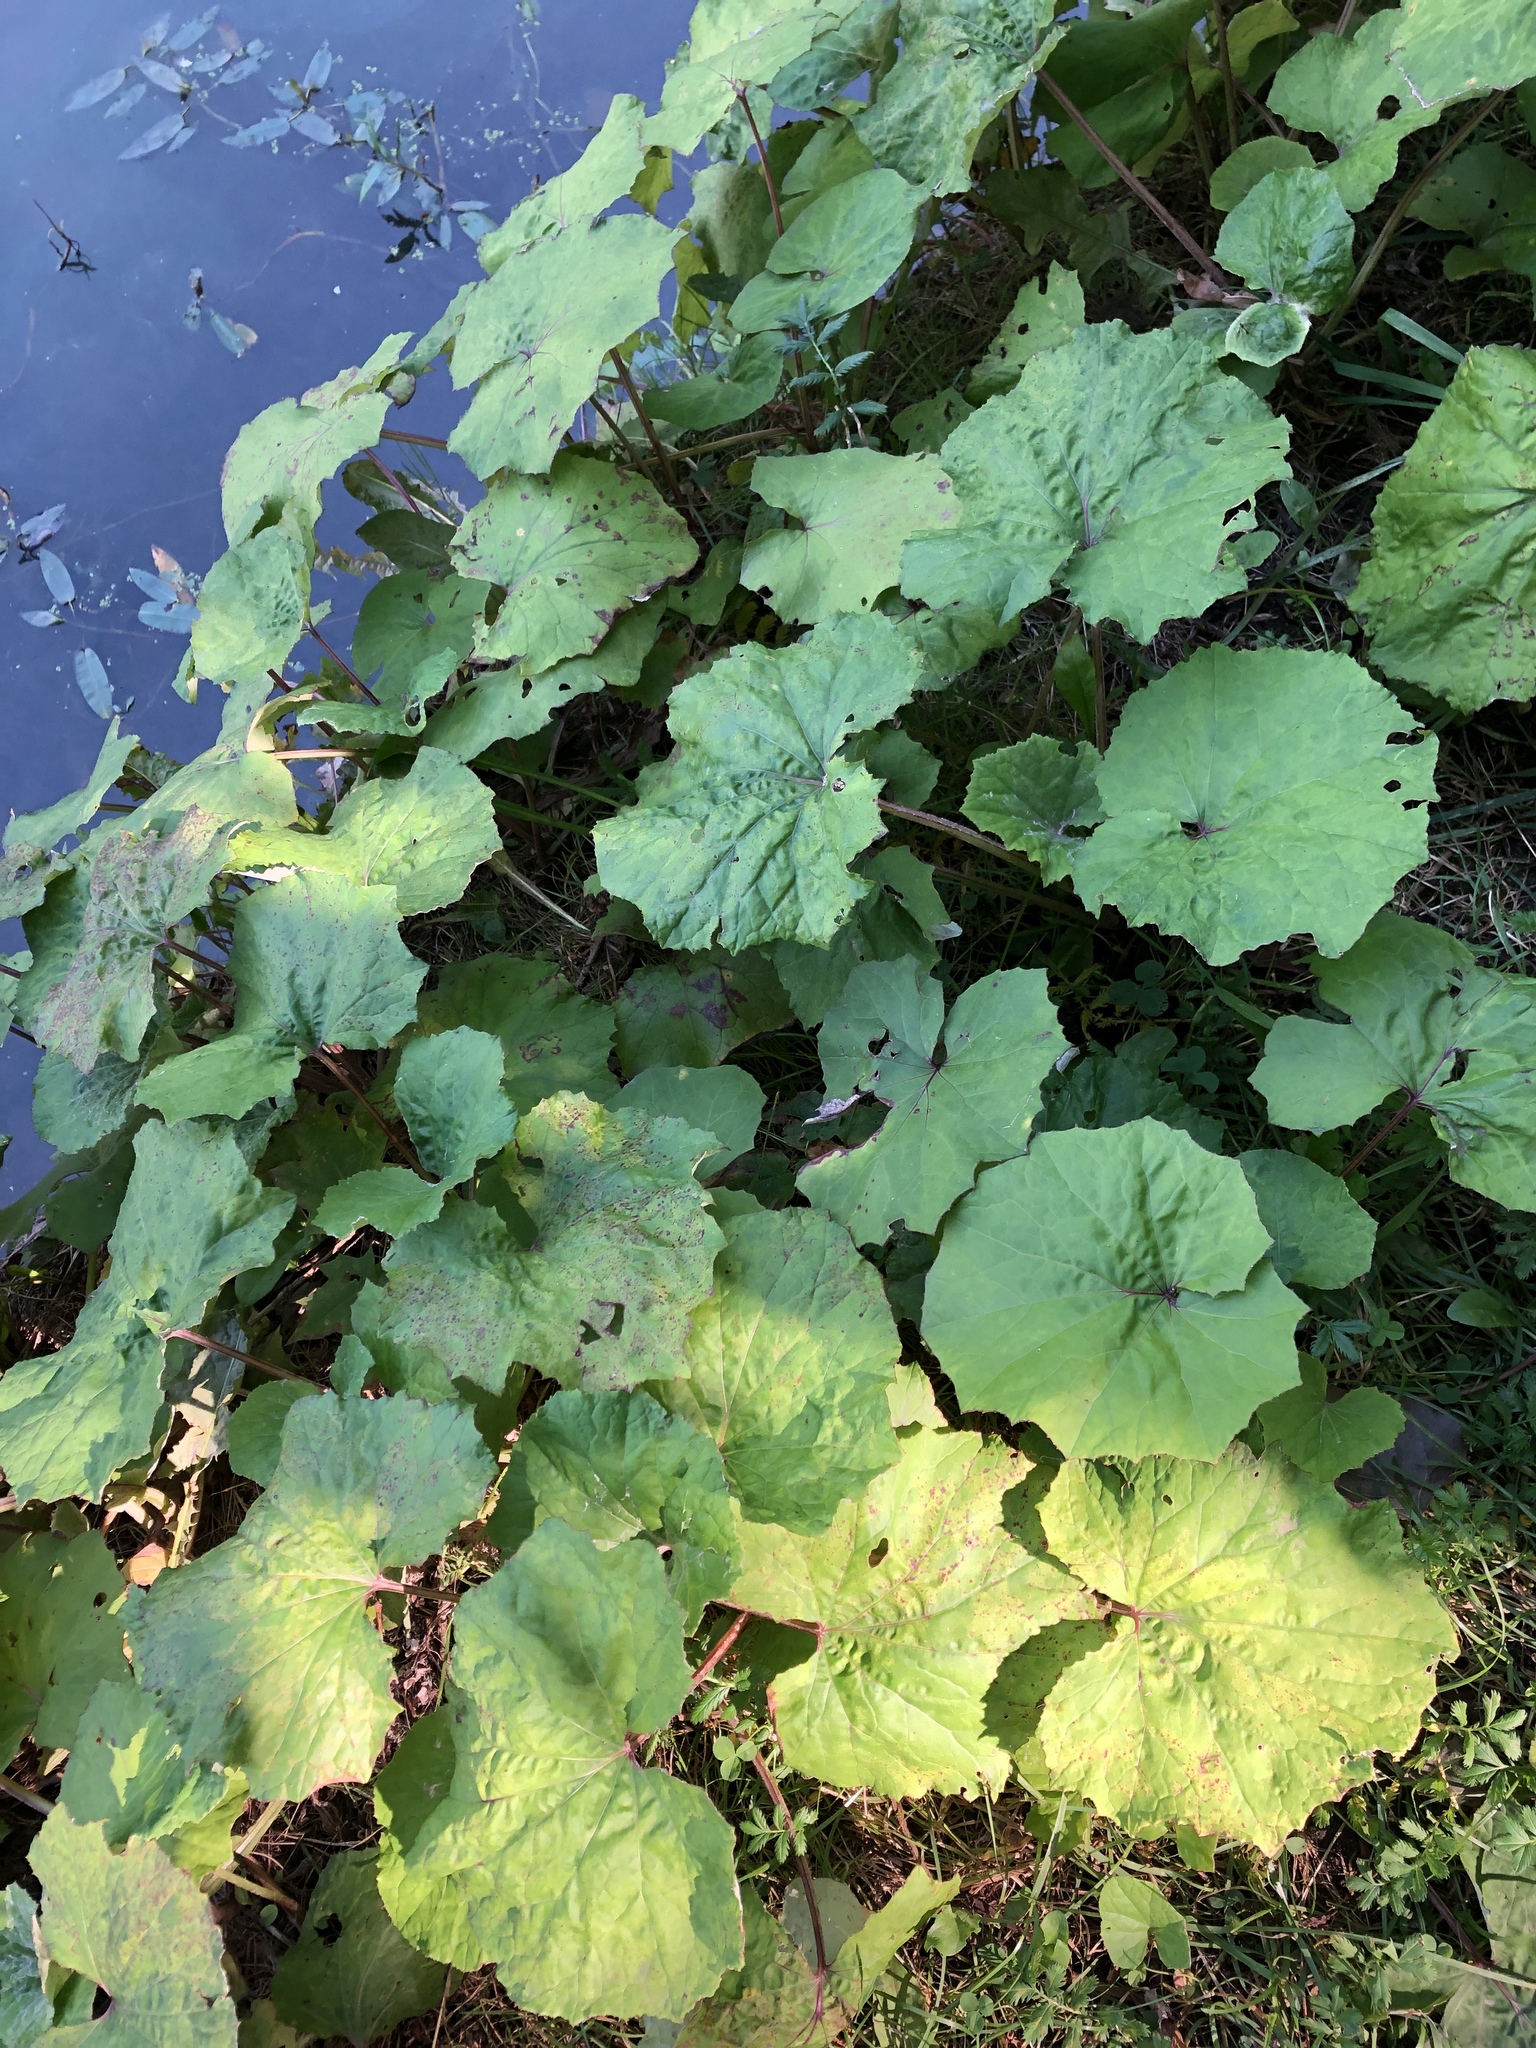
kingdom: Plantae
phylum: Tracheophyta
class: Magnoliopsida
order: Asterales
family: Asteraceae
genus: Tussilago
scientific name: Tussilago farfara
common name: Coltsfoot
